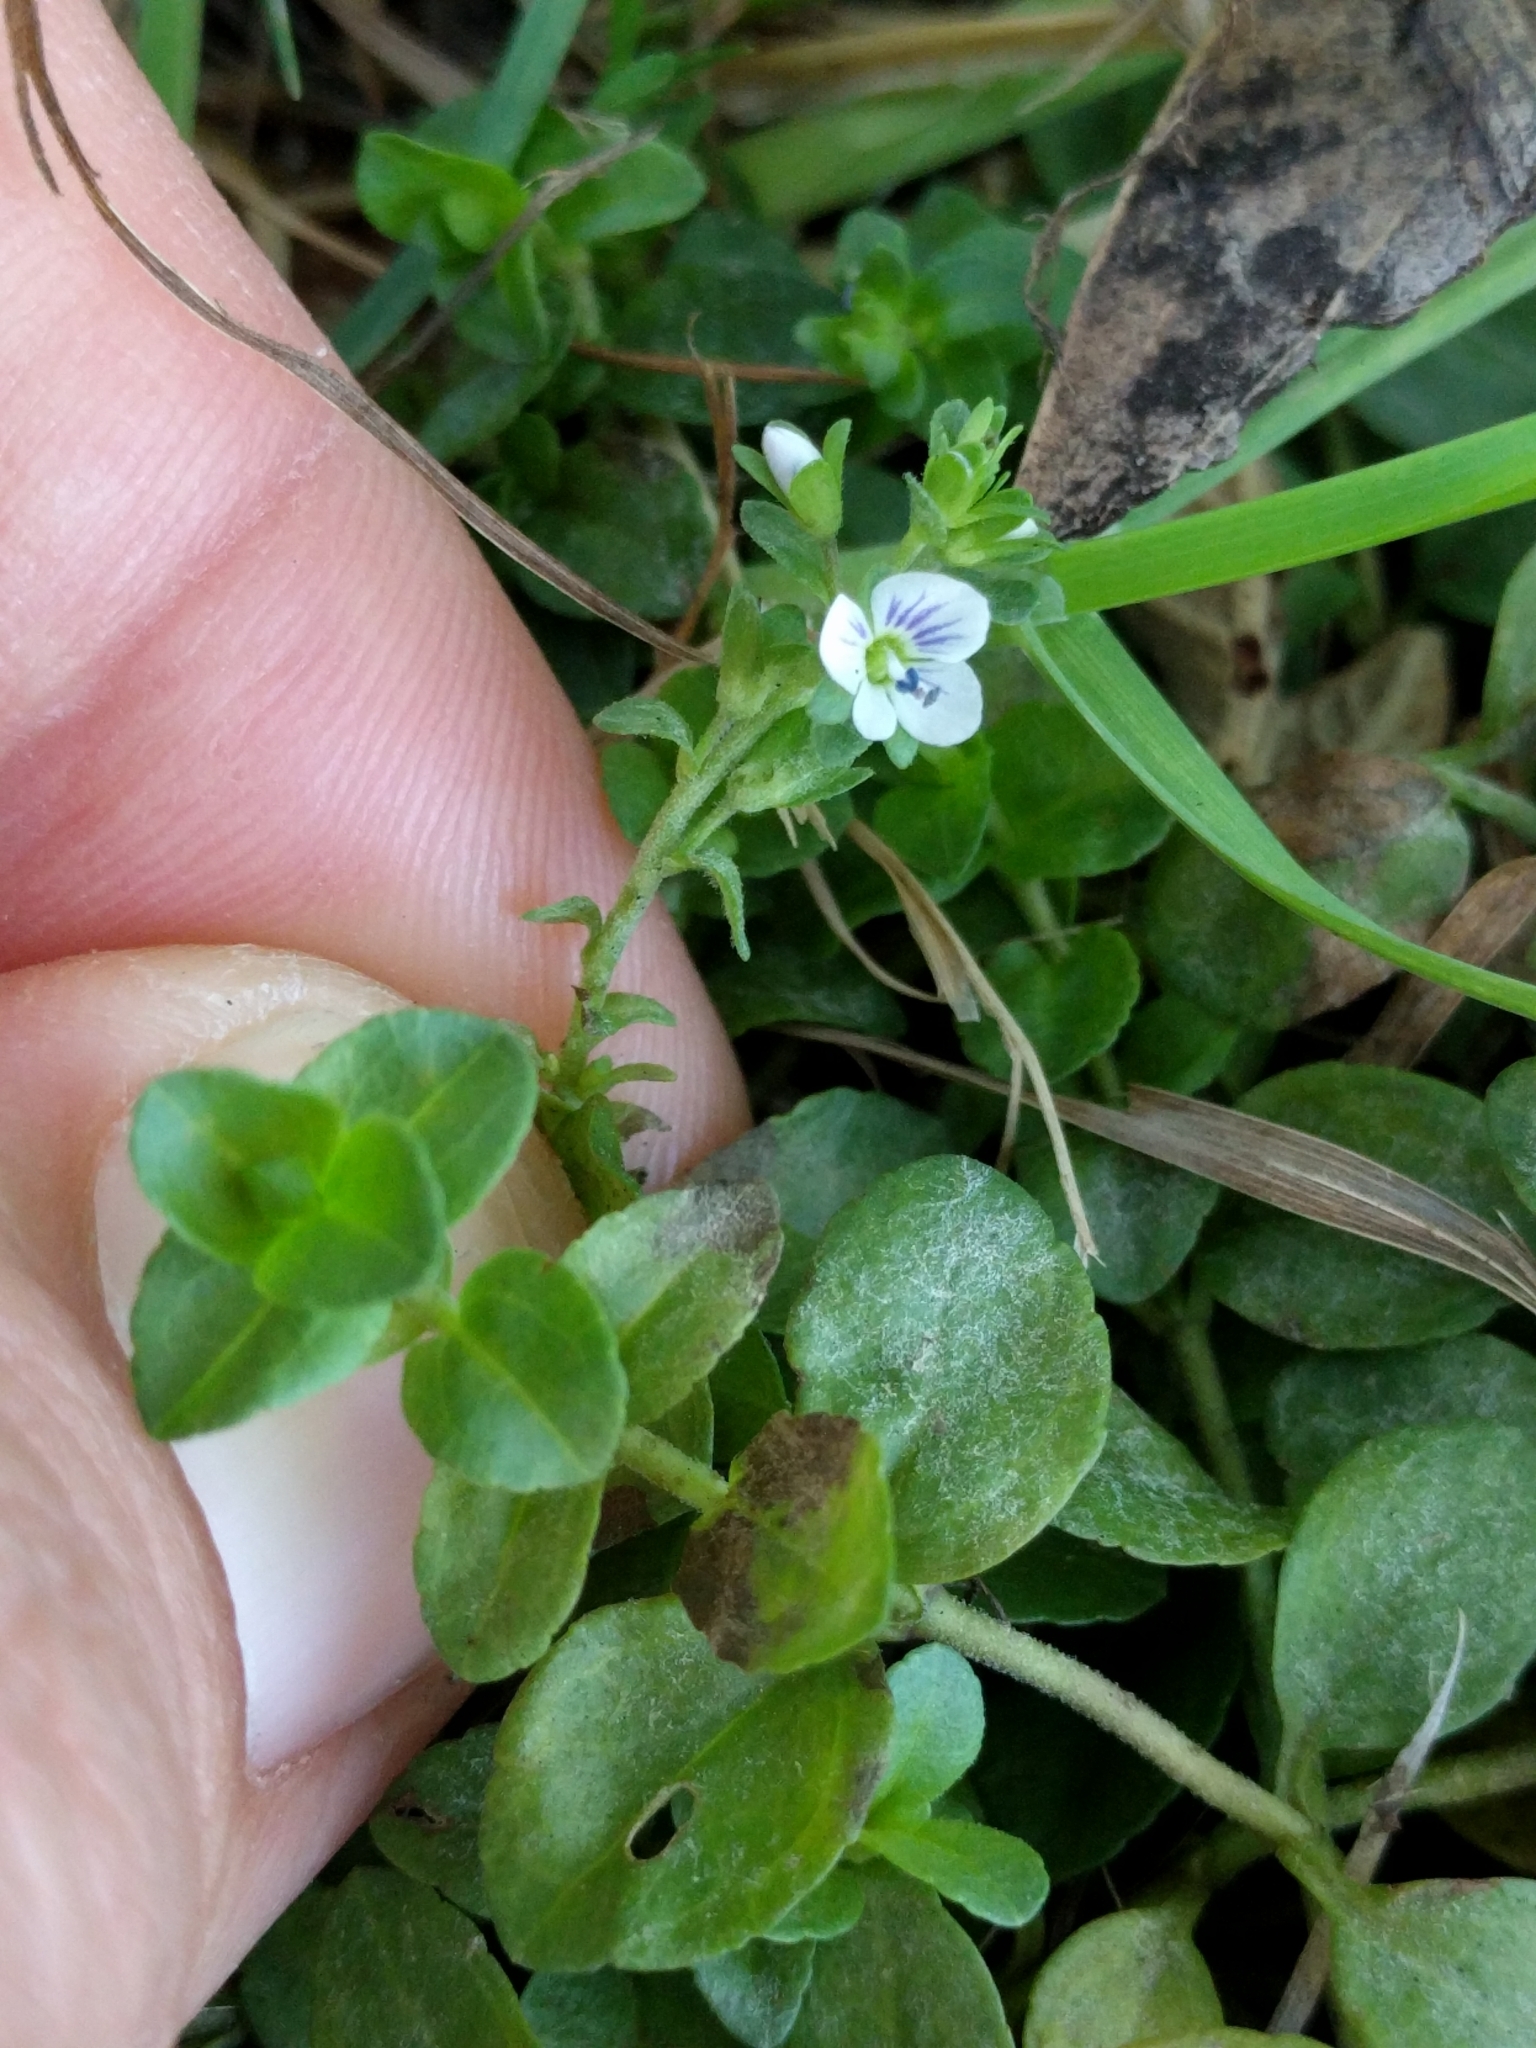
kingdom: Plantae
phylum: Tracheophyta
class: Magnoliopsida
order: Lamiales
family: Plantaginaceae
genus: Veronica
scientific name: Veronica serpyllifolia
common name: Thyme-leaved speedwell
